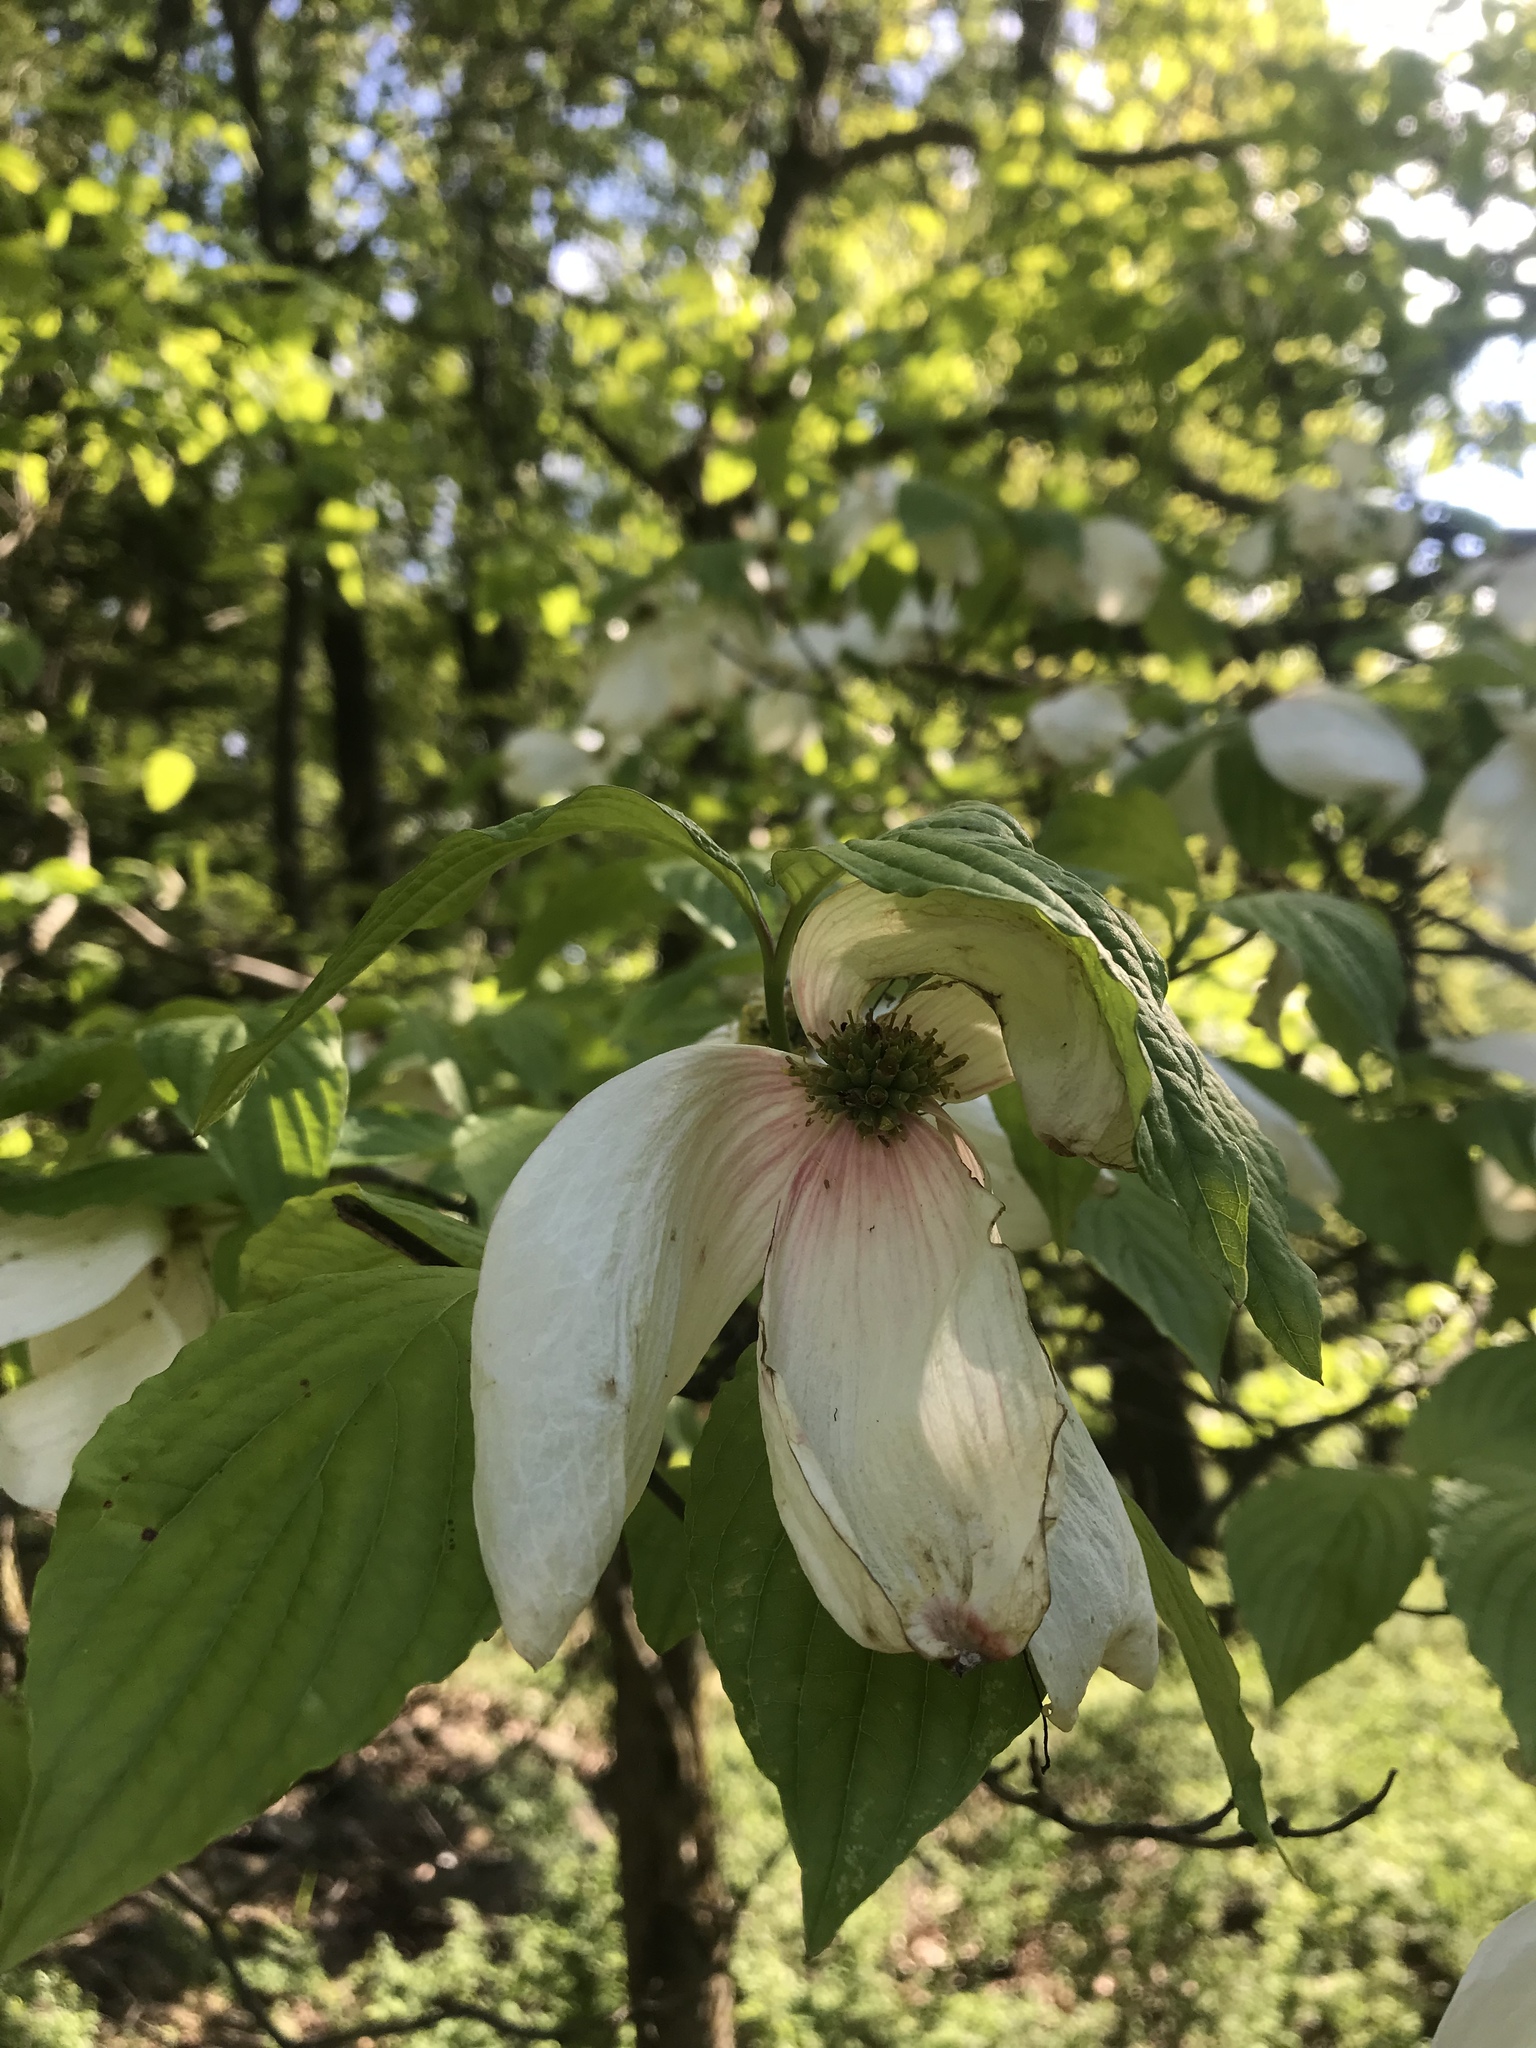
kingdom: Plantae
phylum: Tracheophyta
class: Magnoliopsida
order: Cornales
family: Cornaceae
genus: Cornus
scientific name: Cornus florida
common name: Flowering dogwood
